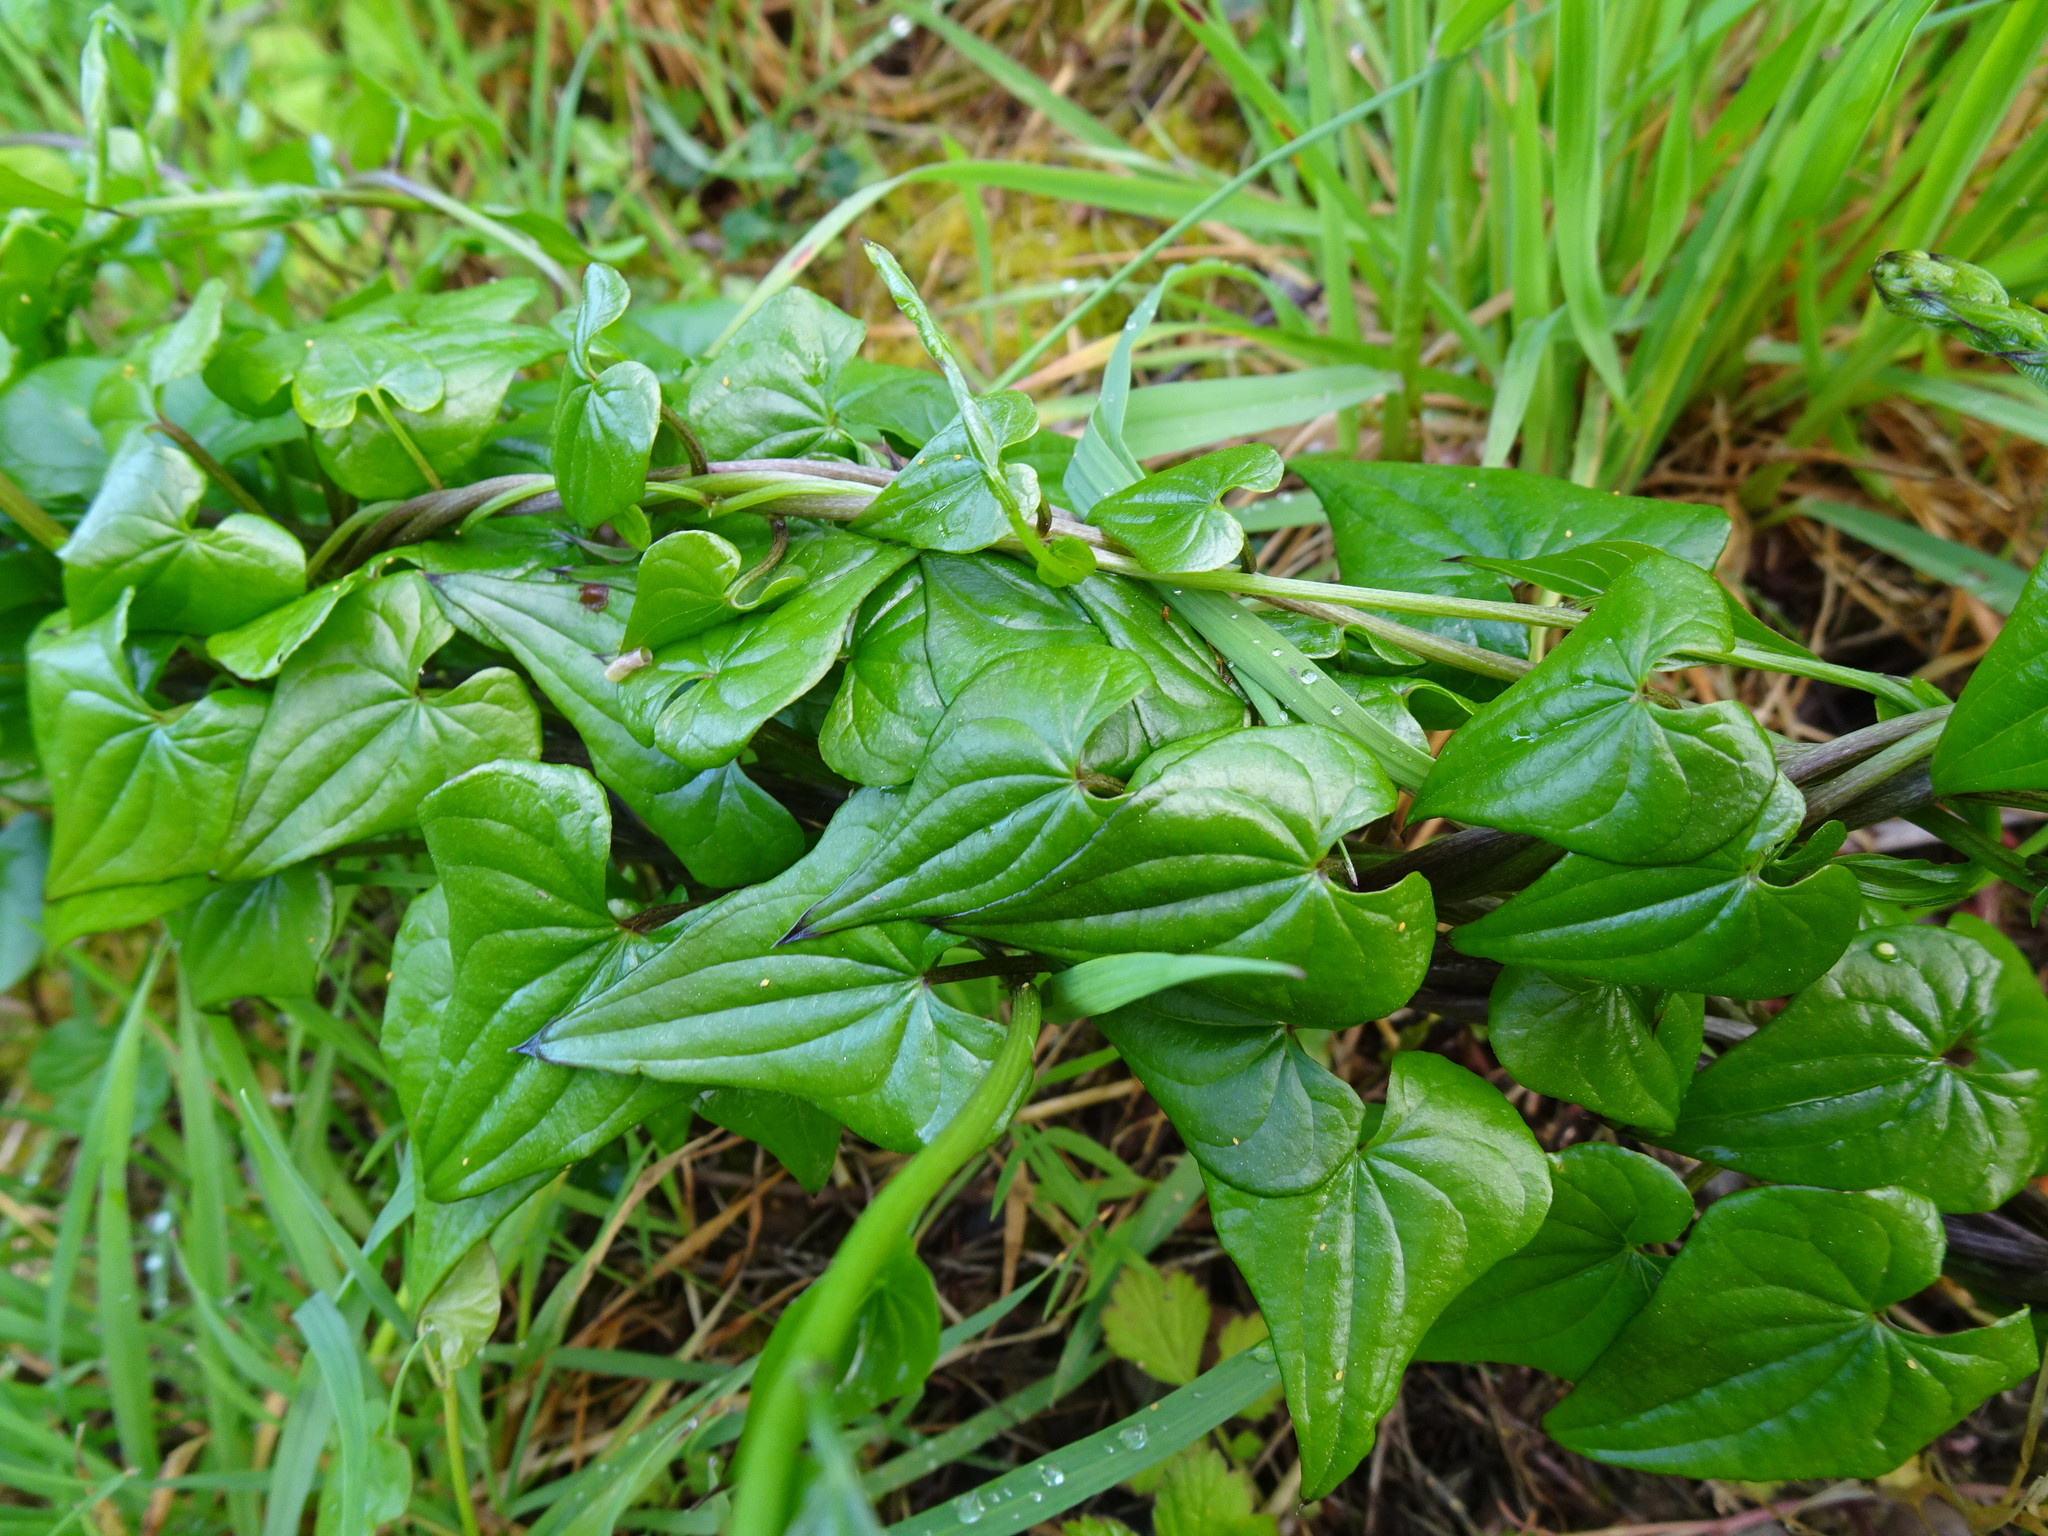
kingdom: Plantae
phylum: Tracheophyta
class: Liliopsida
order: Dioscoreales
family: Dioscoreaceae
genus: Dioscorea
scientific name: Dioscorea communis
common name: Black-bindweed
